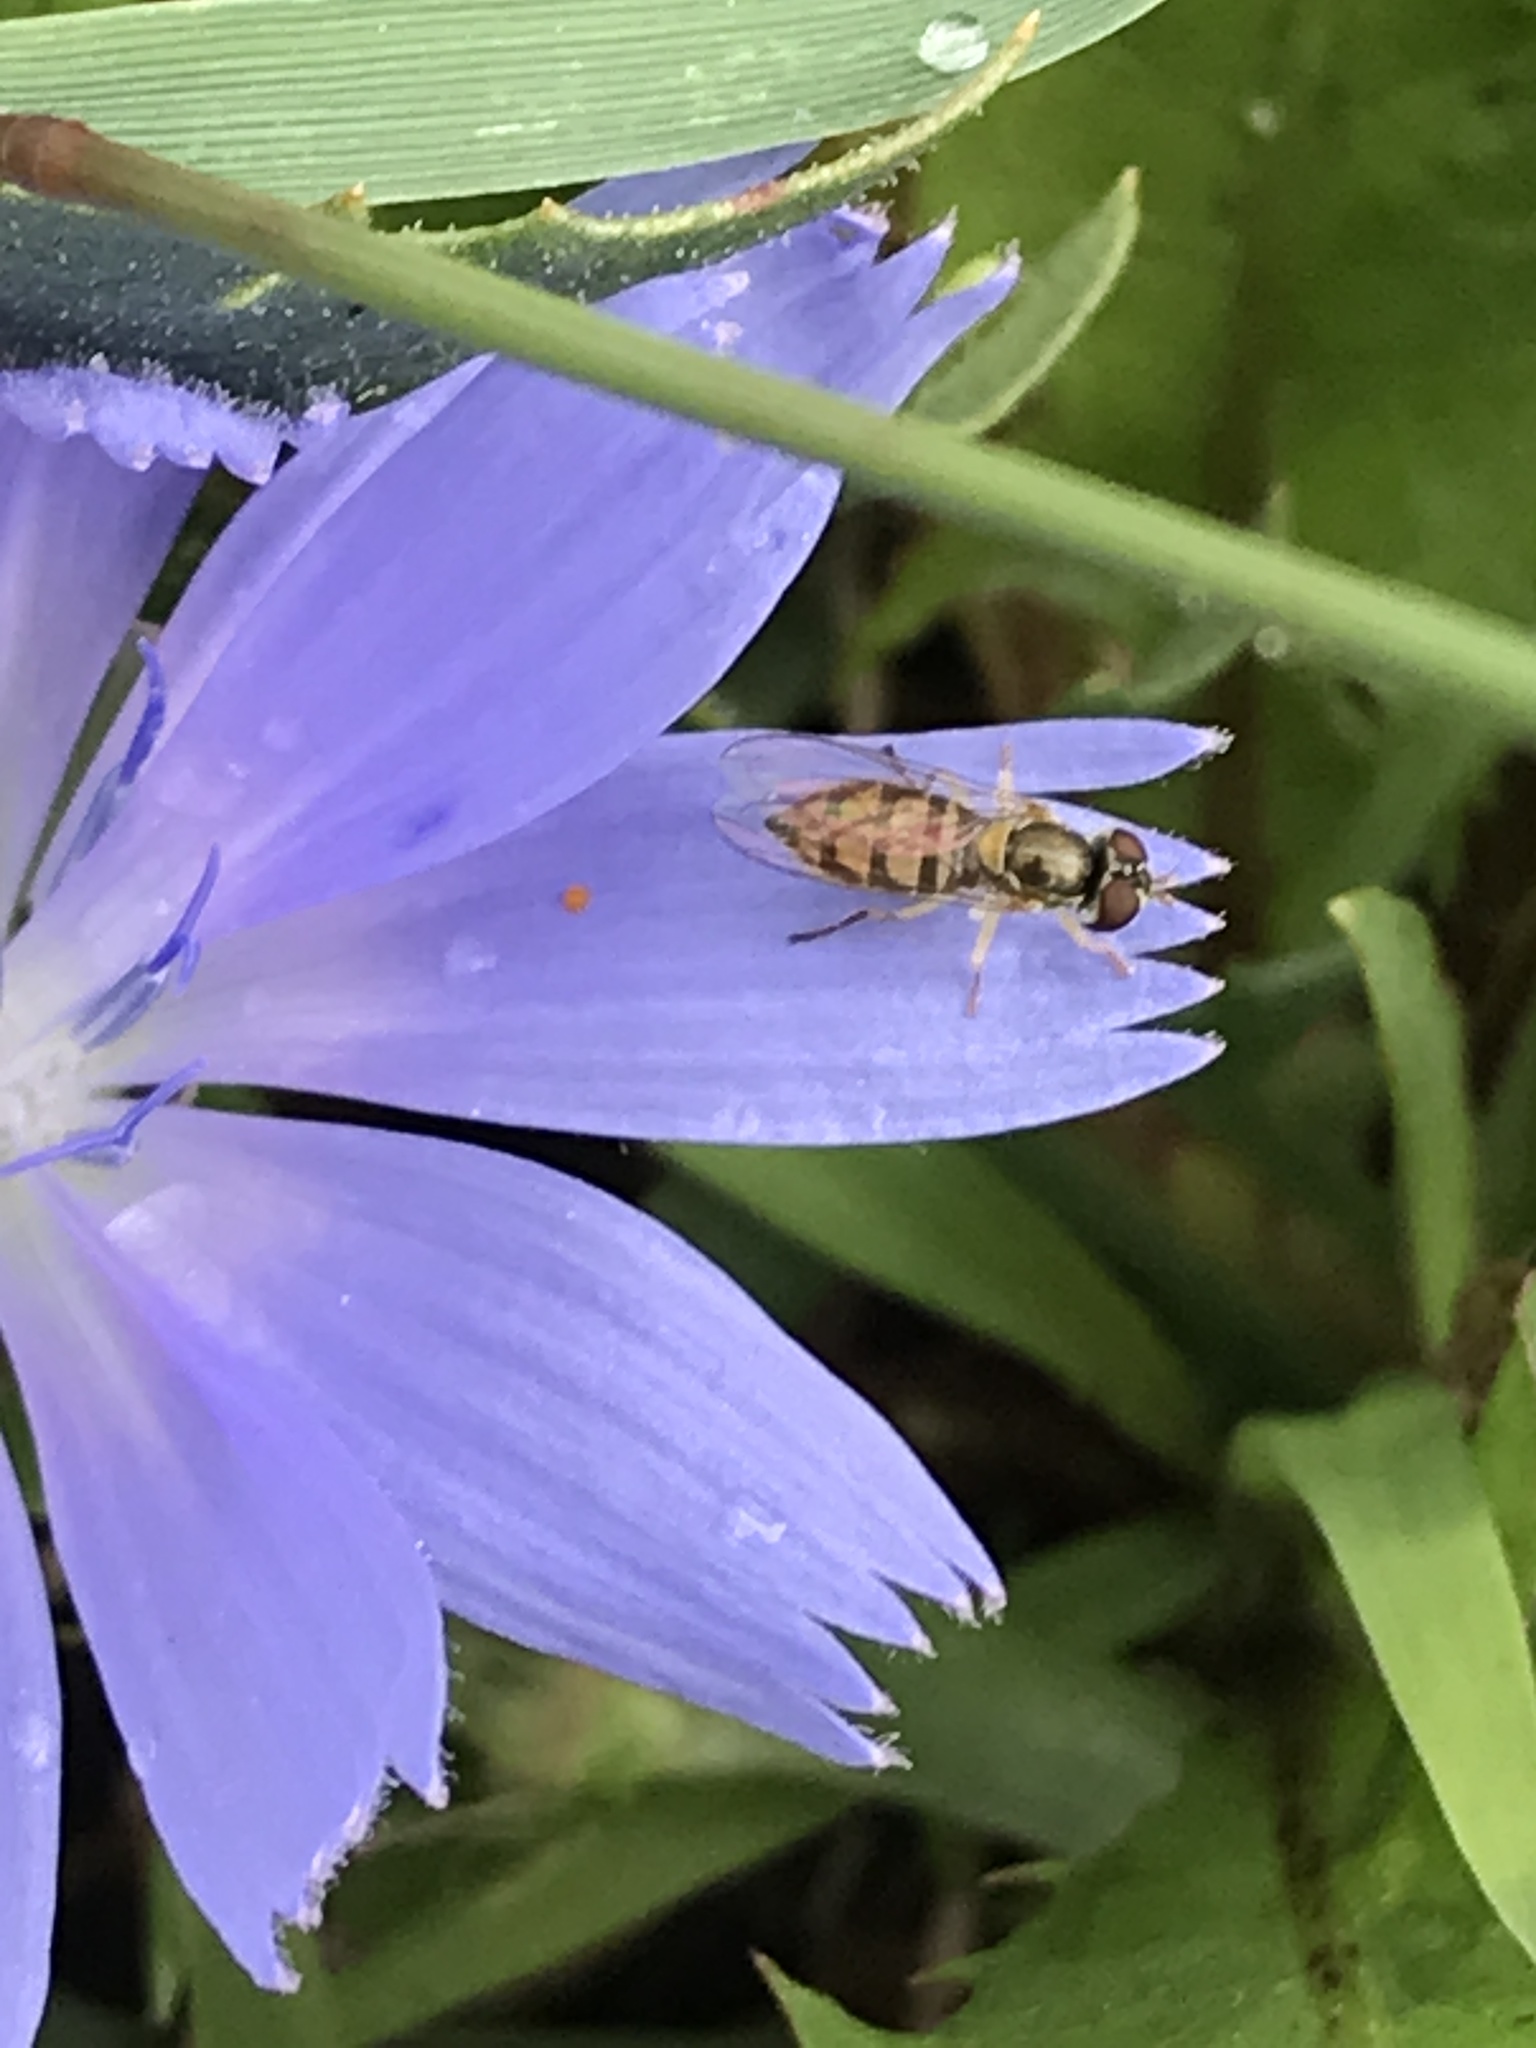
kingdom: Animalia
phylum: Arthropoda
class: Insecta
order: Diptera
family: Syrphidae
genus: Toxomerus
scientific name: Toxomerus marginatus
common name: Syrphid fly
